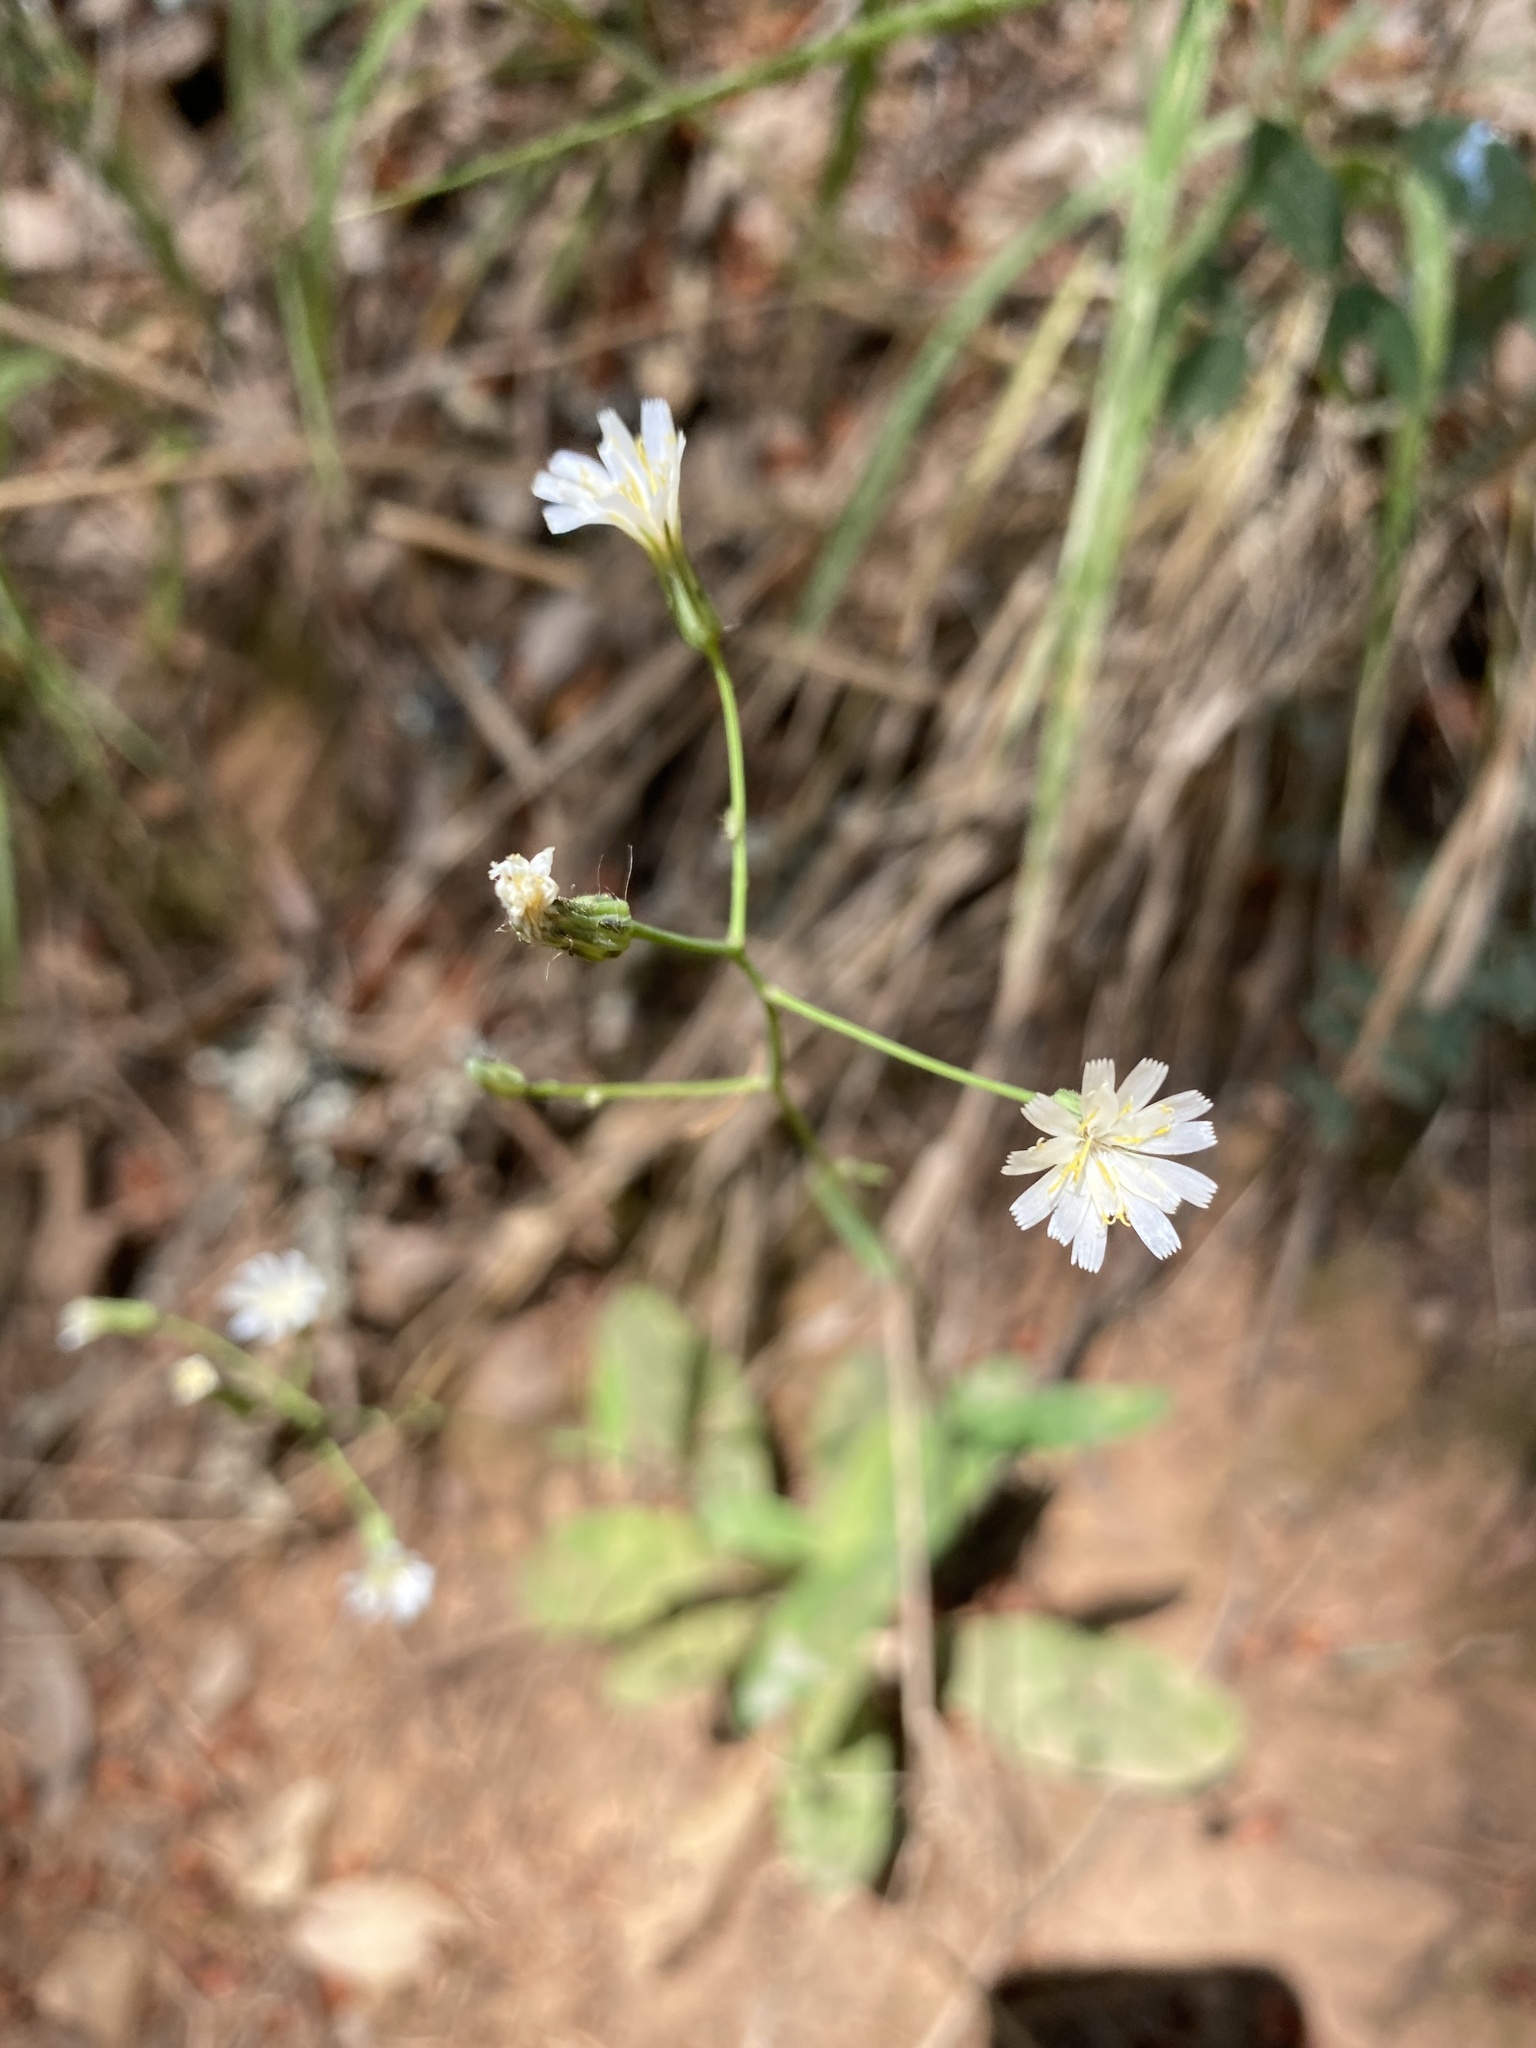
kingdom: Plantae
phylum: Tracheophyta
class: Magnoliopsida
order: Asterales
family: Asteraceae
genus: Hieracium
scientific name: Hieracium albiflorum
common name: White hawkweed
